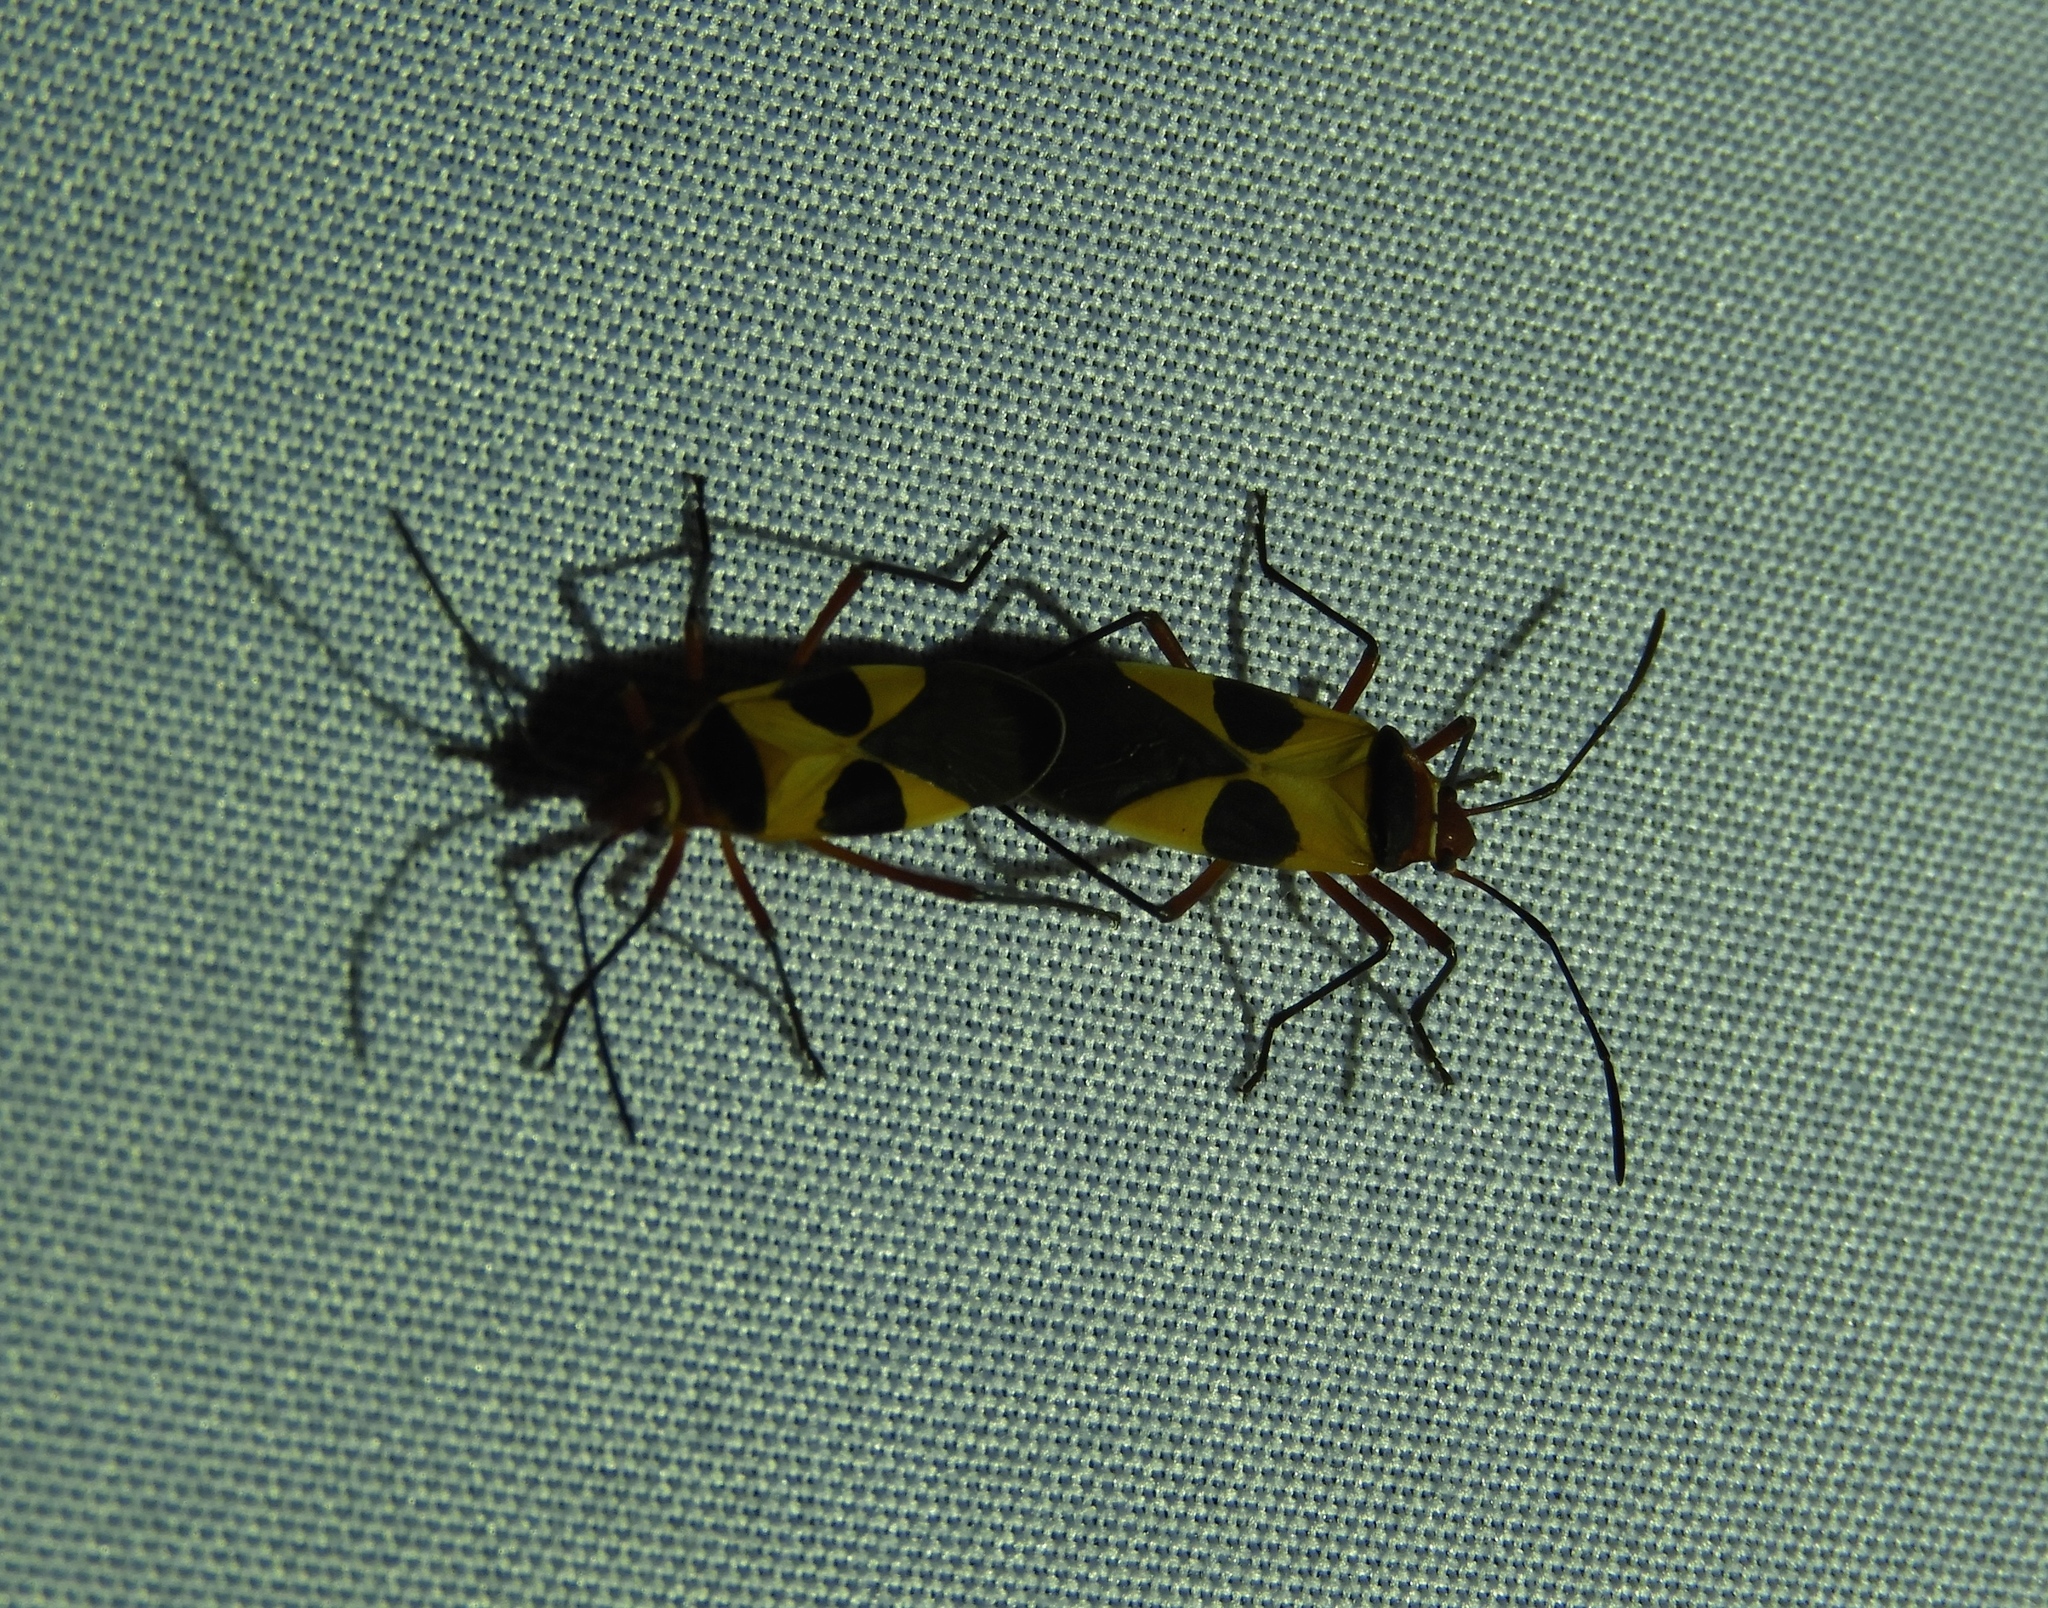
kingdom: Animalia
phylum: Arthropoda
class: Insecta
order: Hemiptera
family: Pyrrhocoridae
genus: Dysdercus
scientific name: Dysdercus
